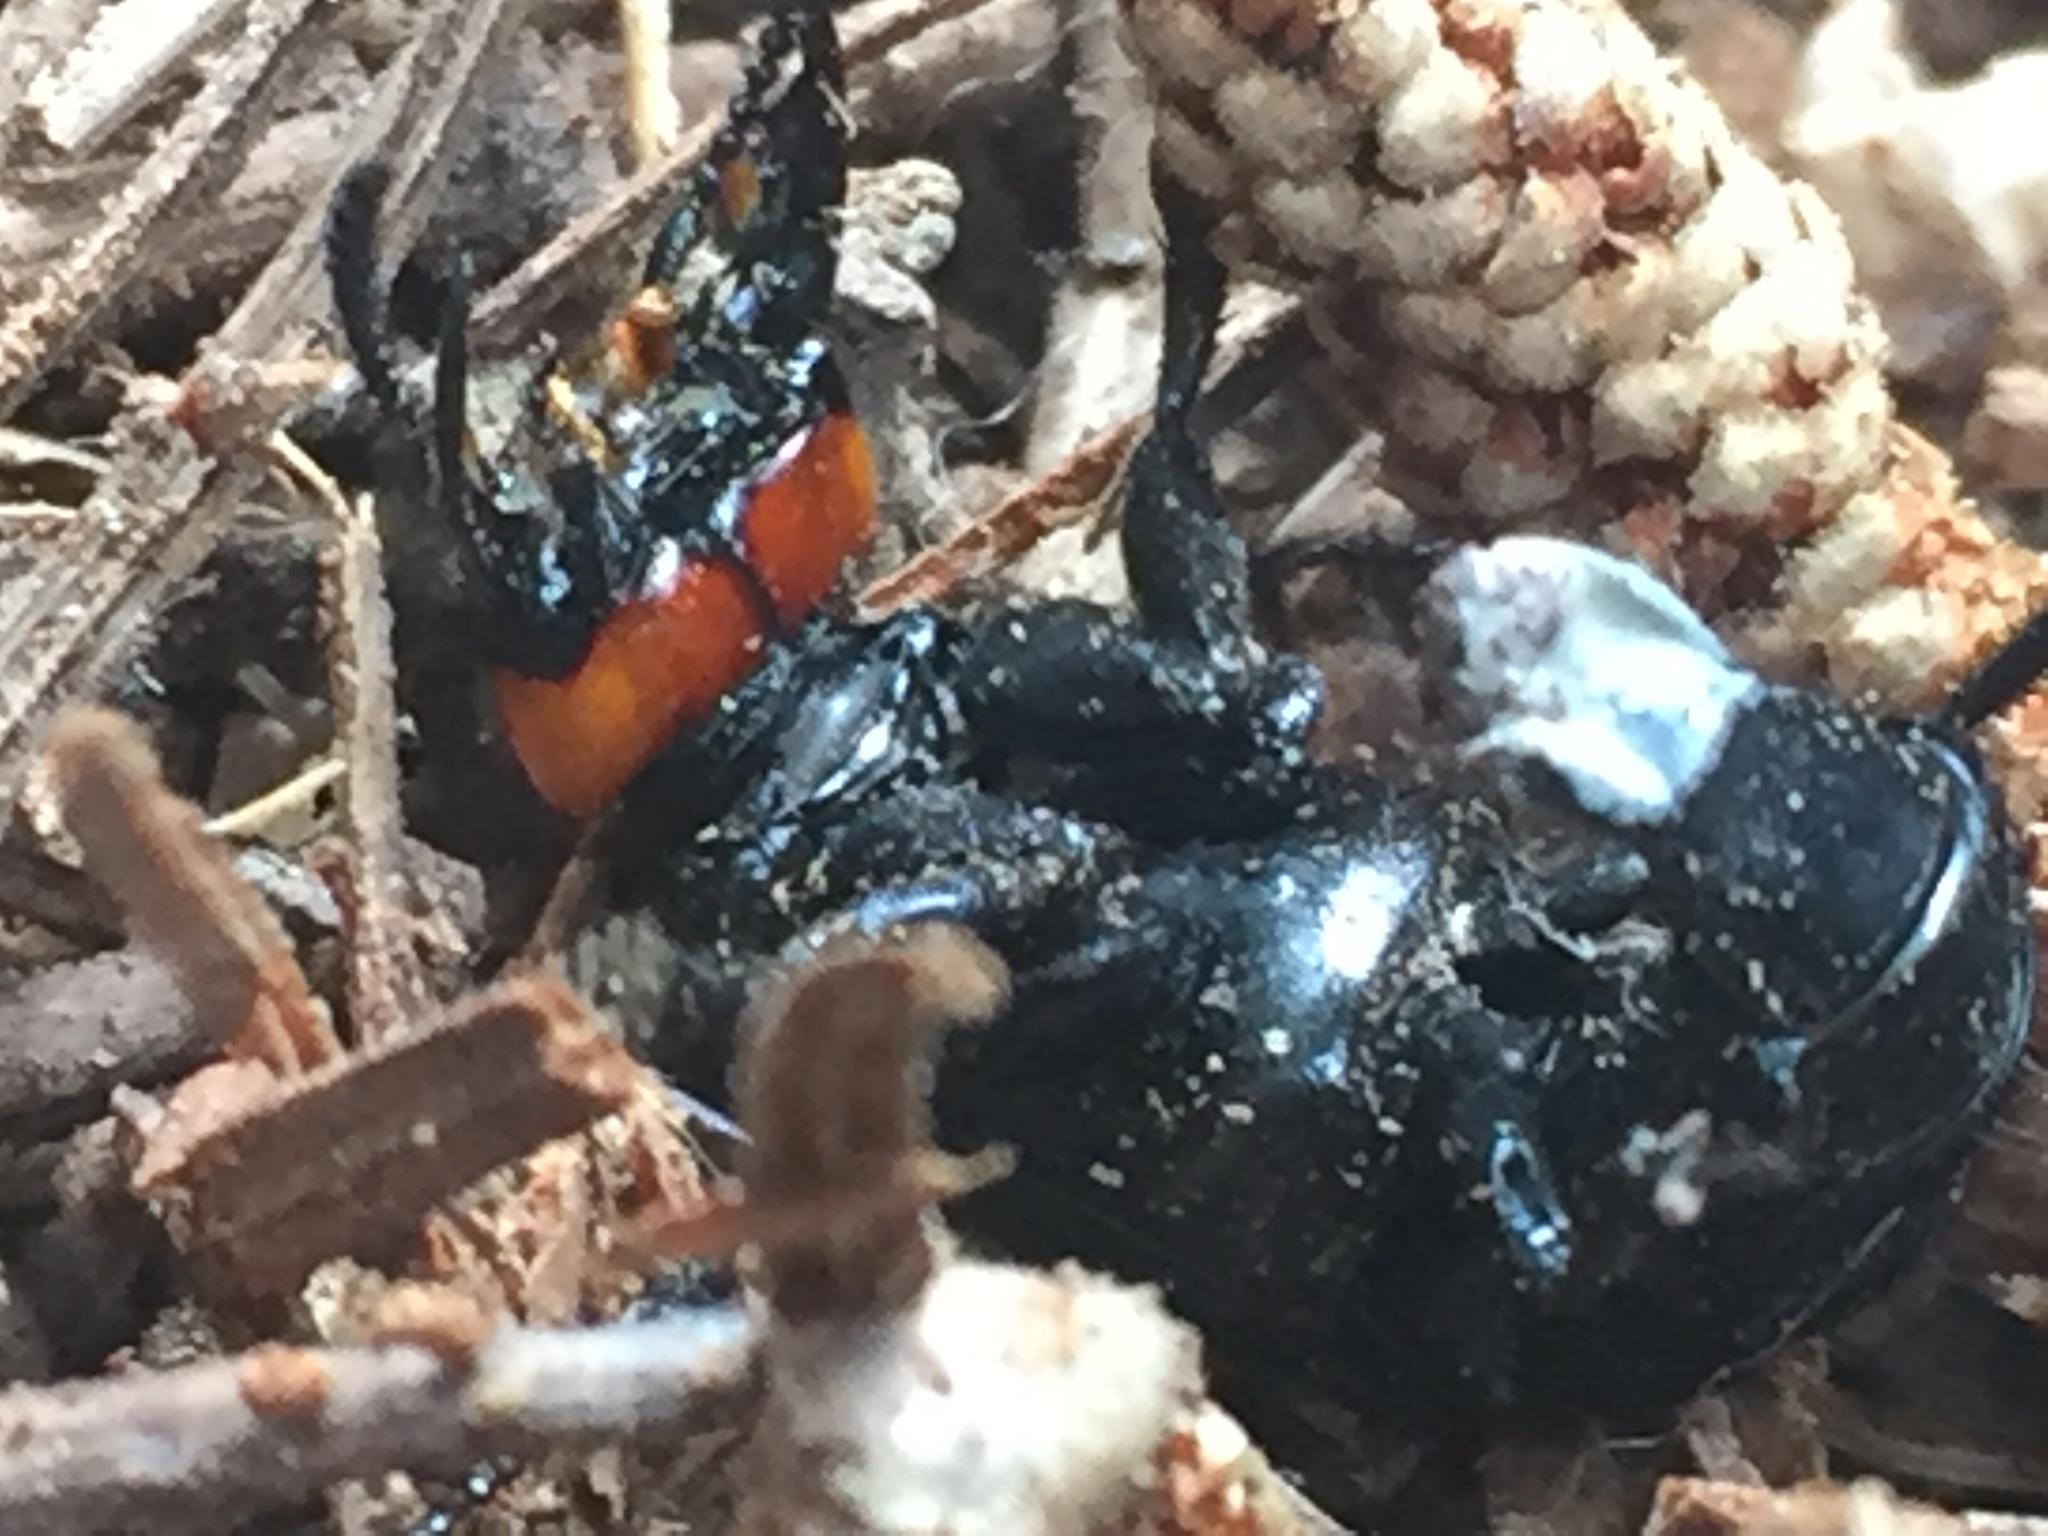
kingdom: Animalia
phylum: Arthropoda
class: Insecta
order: Coleoptera
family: Staphylinidae
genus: Creophilus
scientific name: Creophilus oculatus
